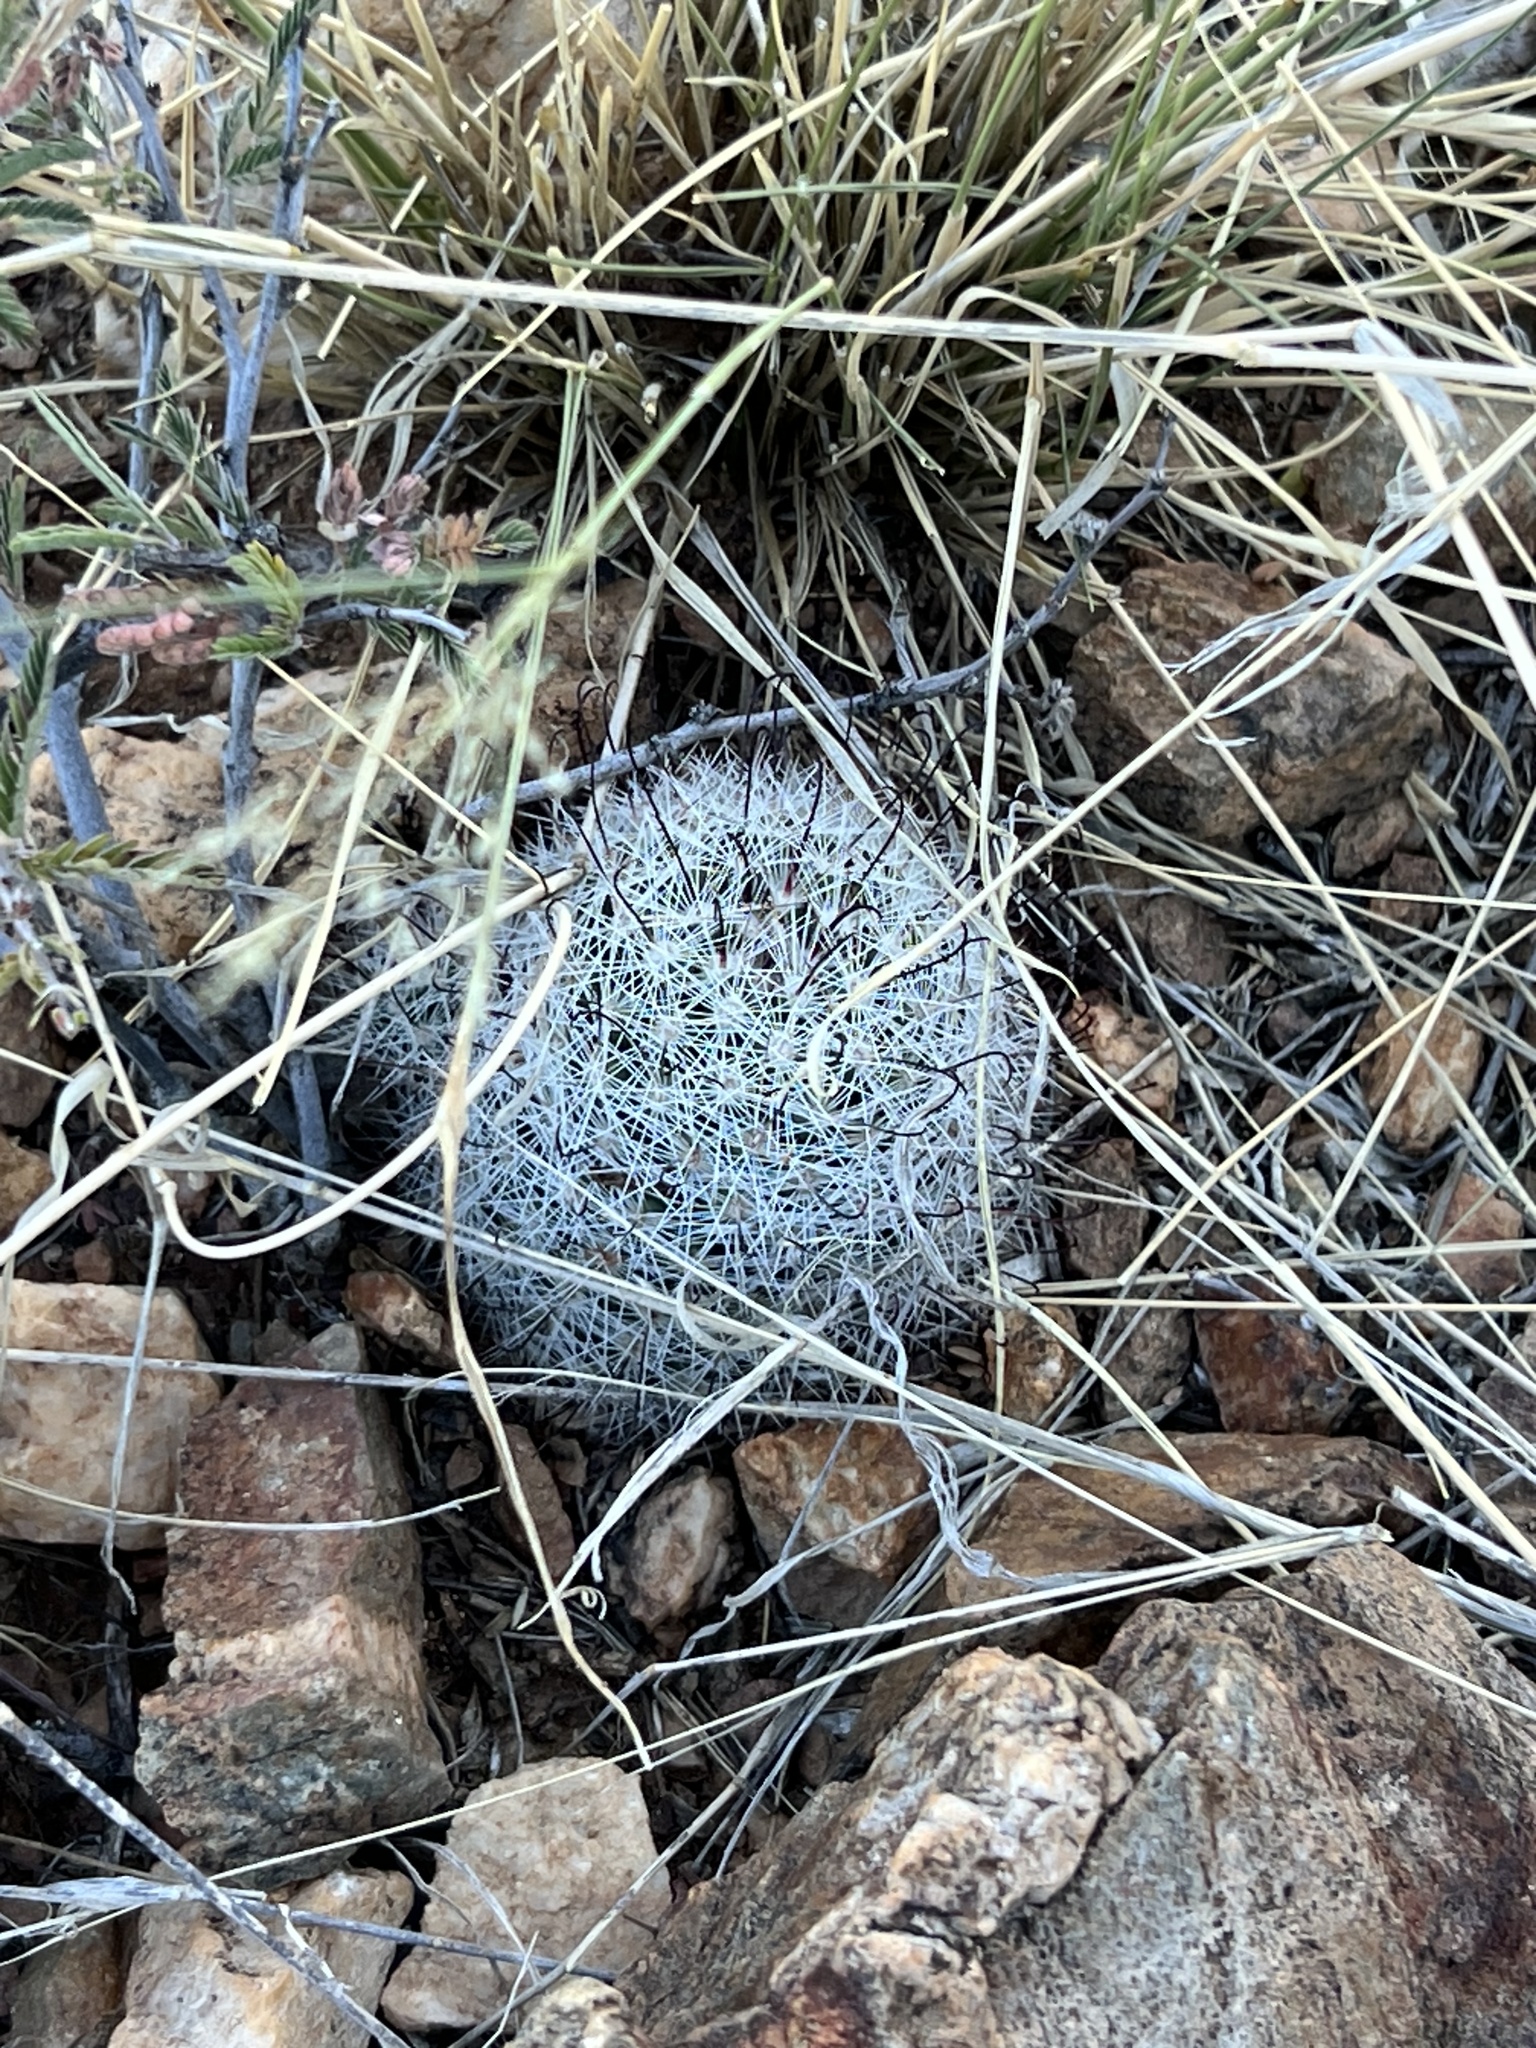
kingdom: Plantae
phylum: Tracheophyta
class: Magnoliopsida
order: Caryophyllales
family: Cactaceae
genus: Cochemiea
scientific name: Cochemiea grahamii
